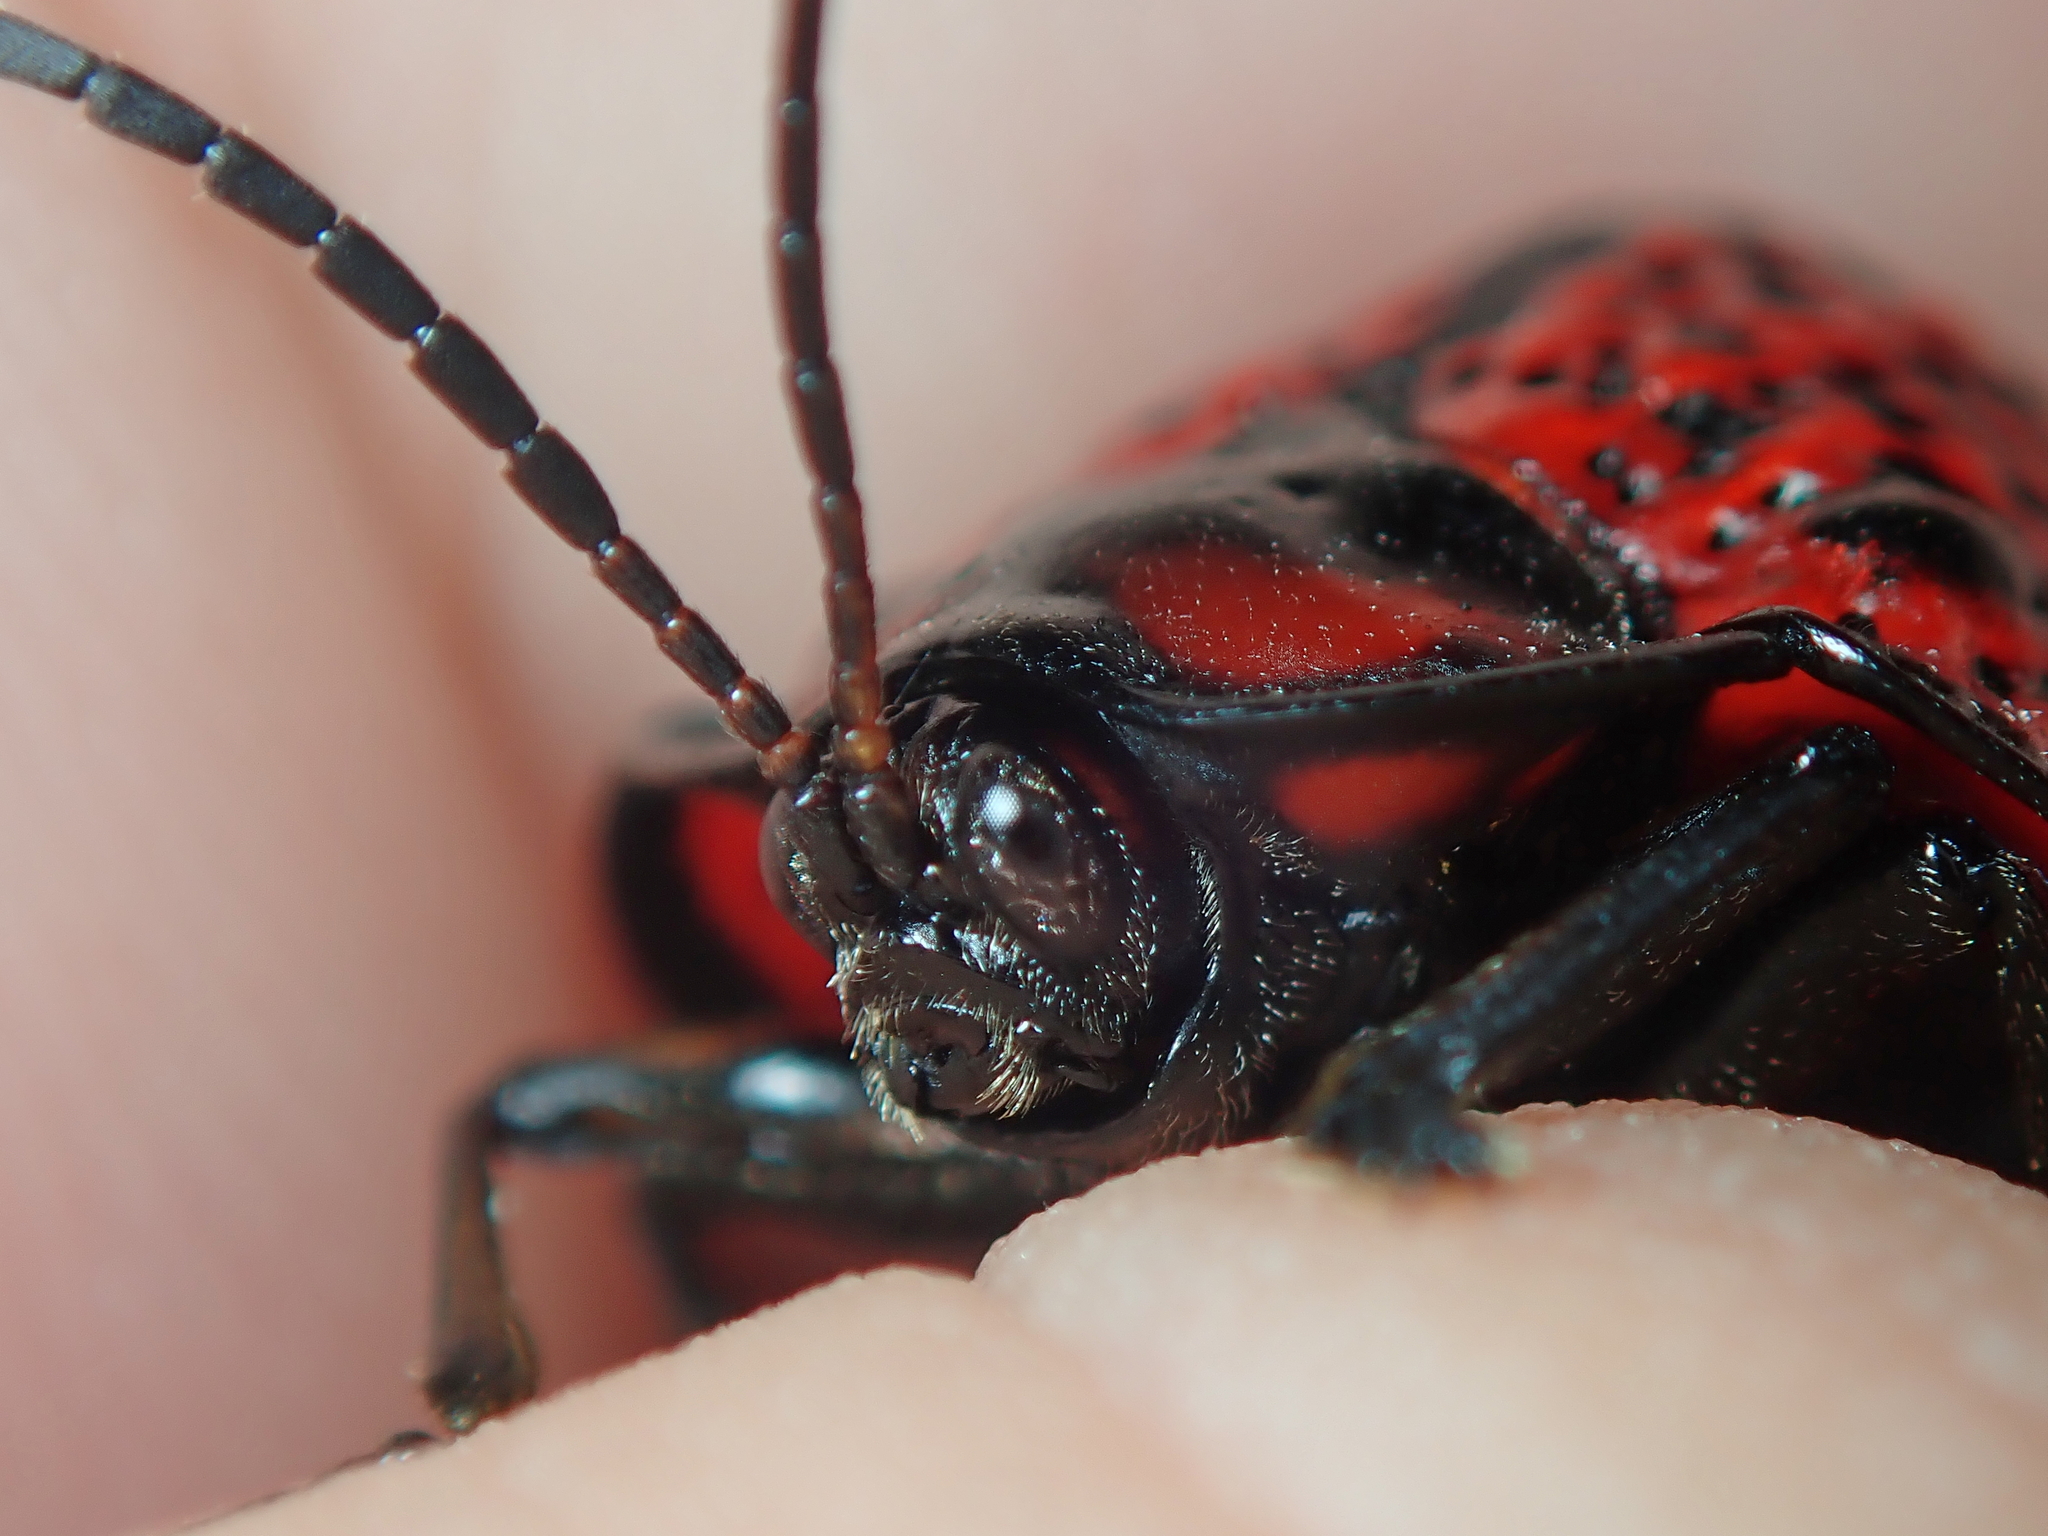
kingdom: Animalia
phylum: Arthropoda
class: Insecta
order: Coleoptera
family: Chrysomelidae
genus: Canistra
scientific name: Canistra irrorata
